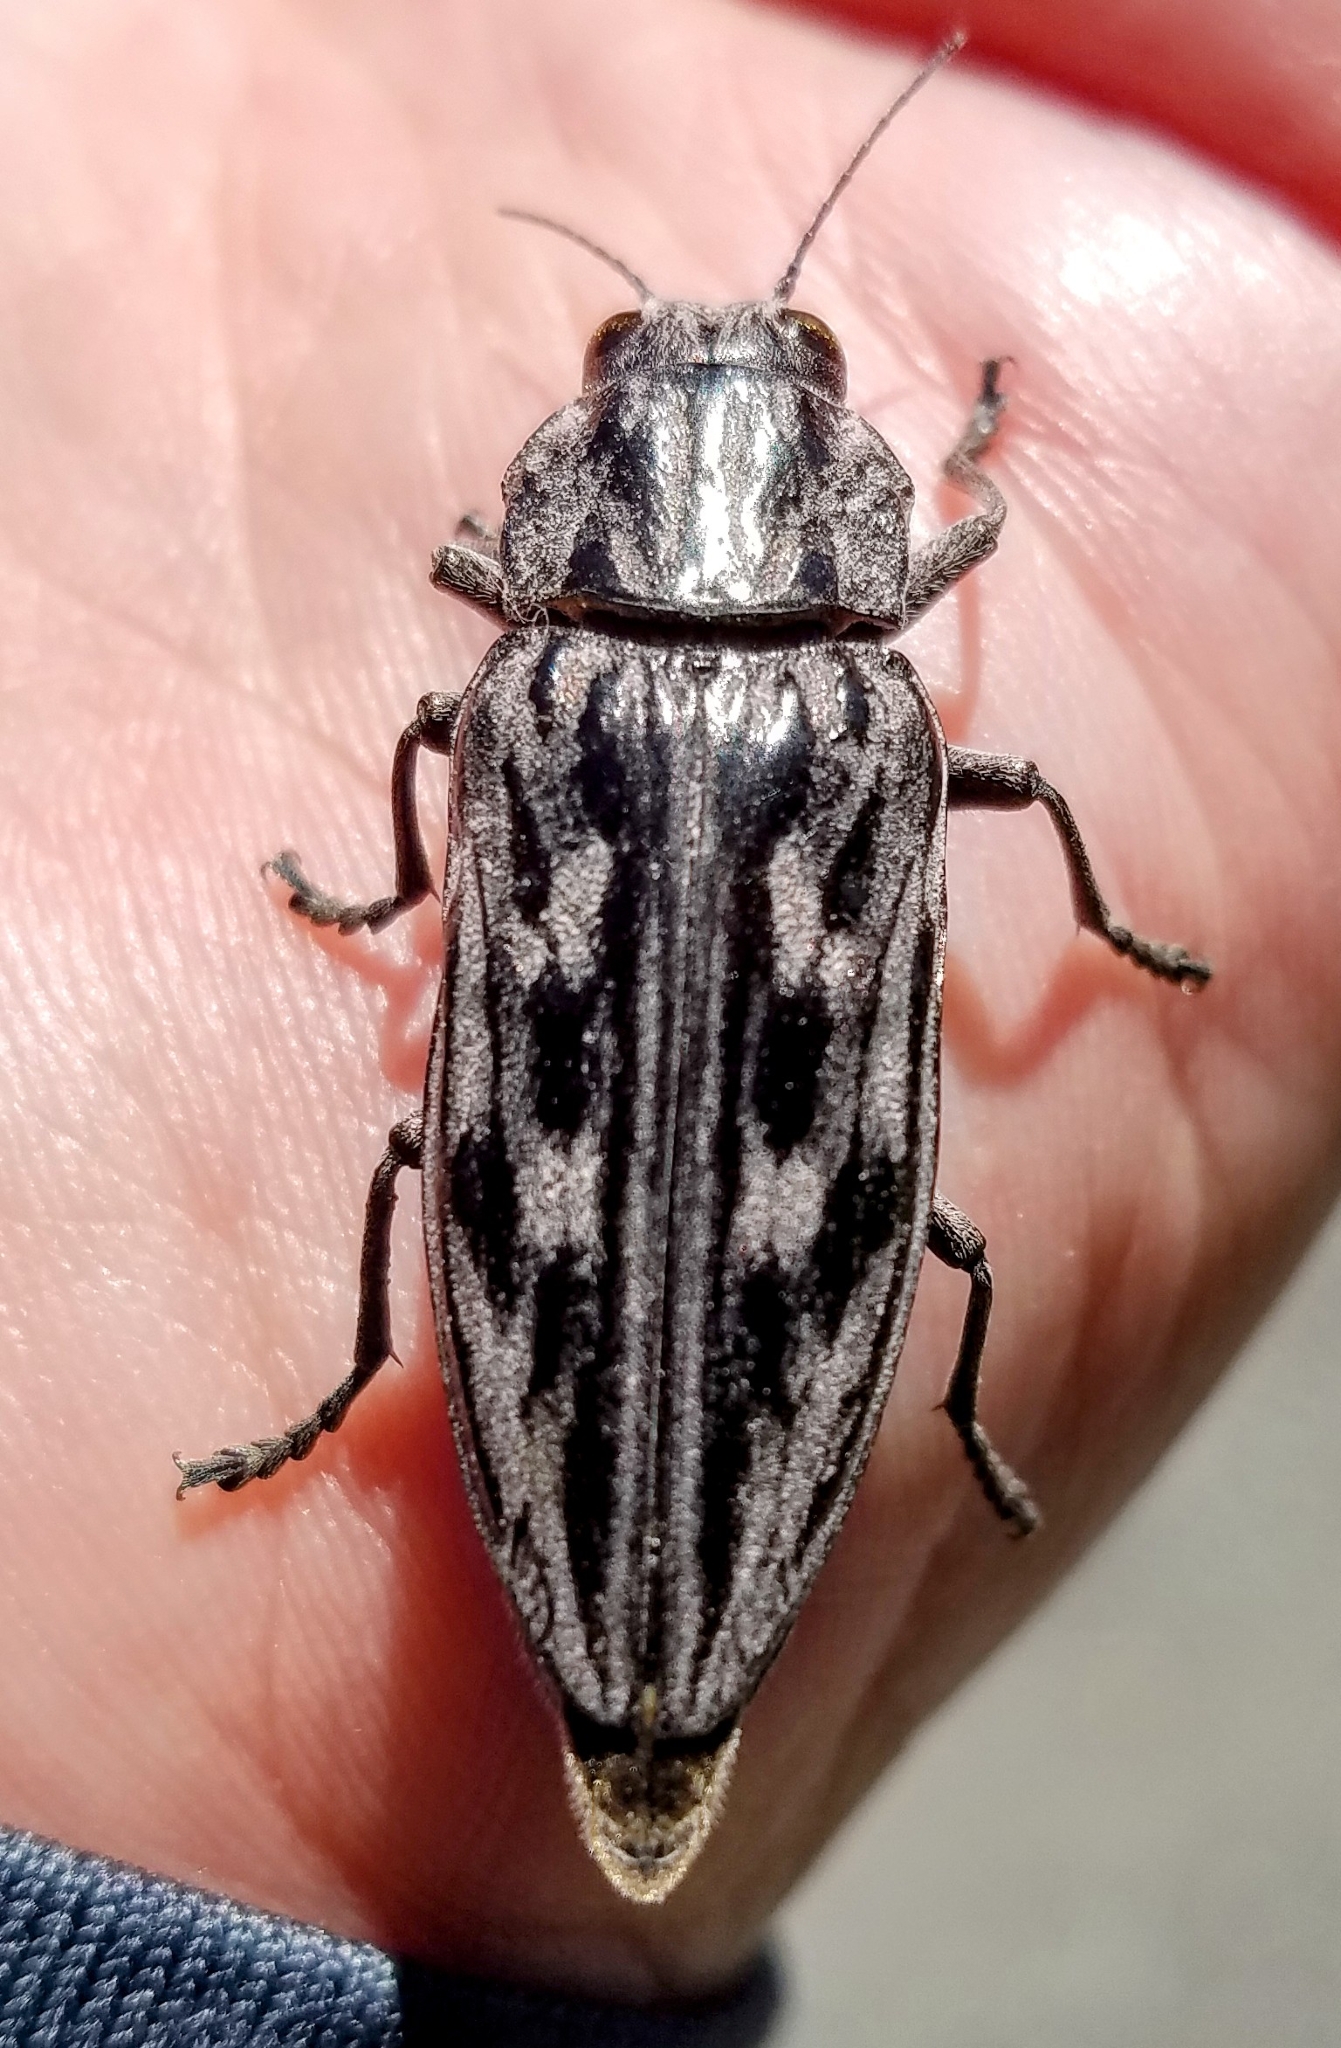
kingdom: Animalia
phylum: Arthropoda
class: Insecta
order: Coleoptera
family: Buprestidae
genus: Chalcophora
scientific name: Chalcophora angulicollis
